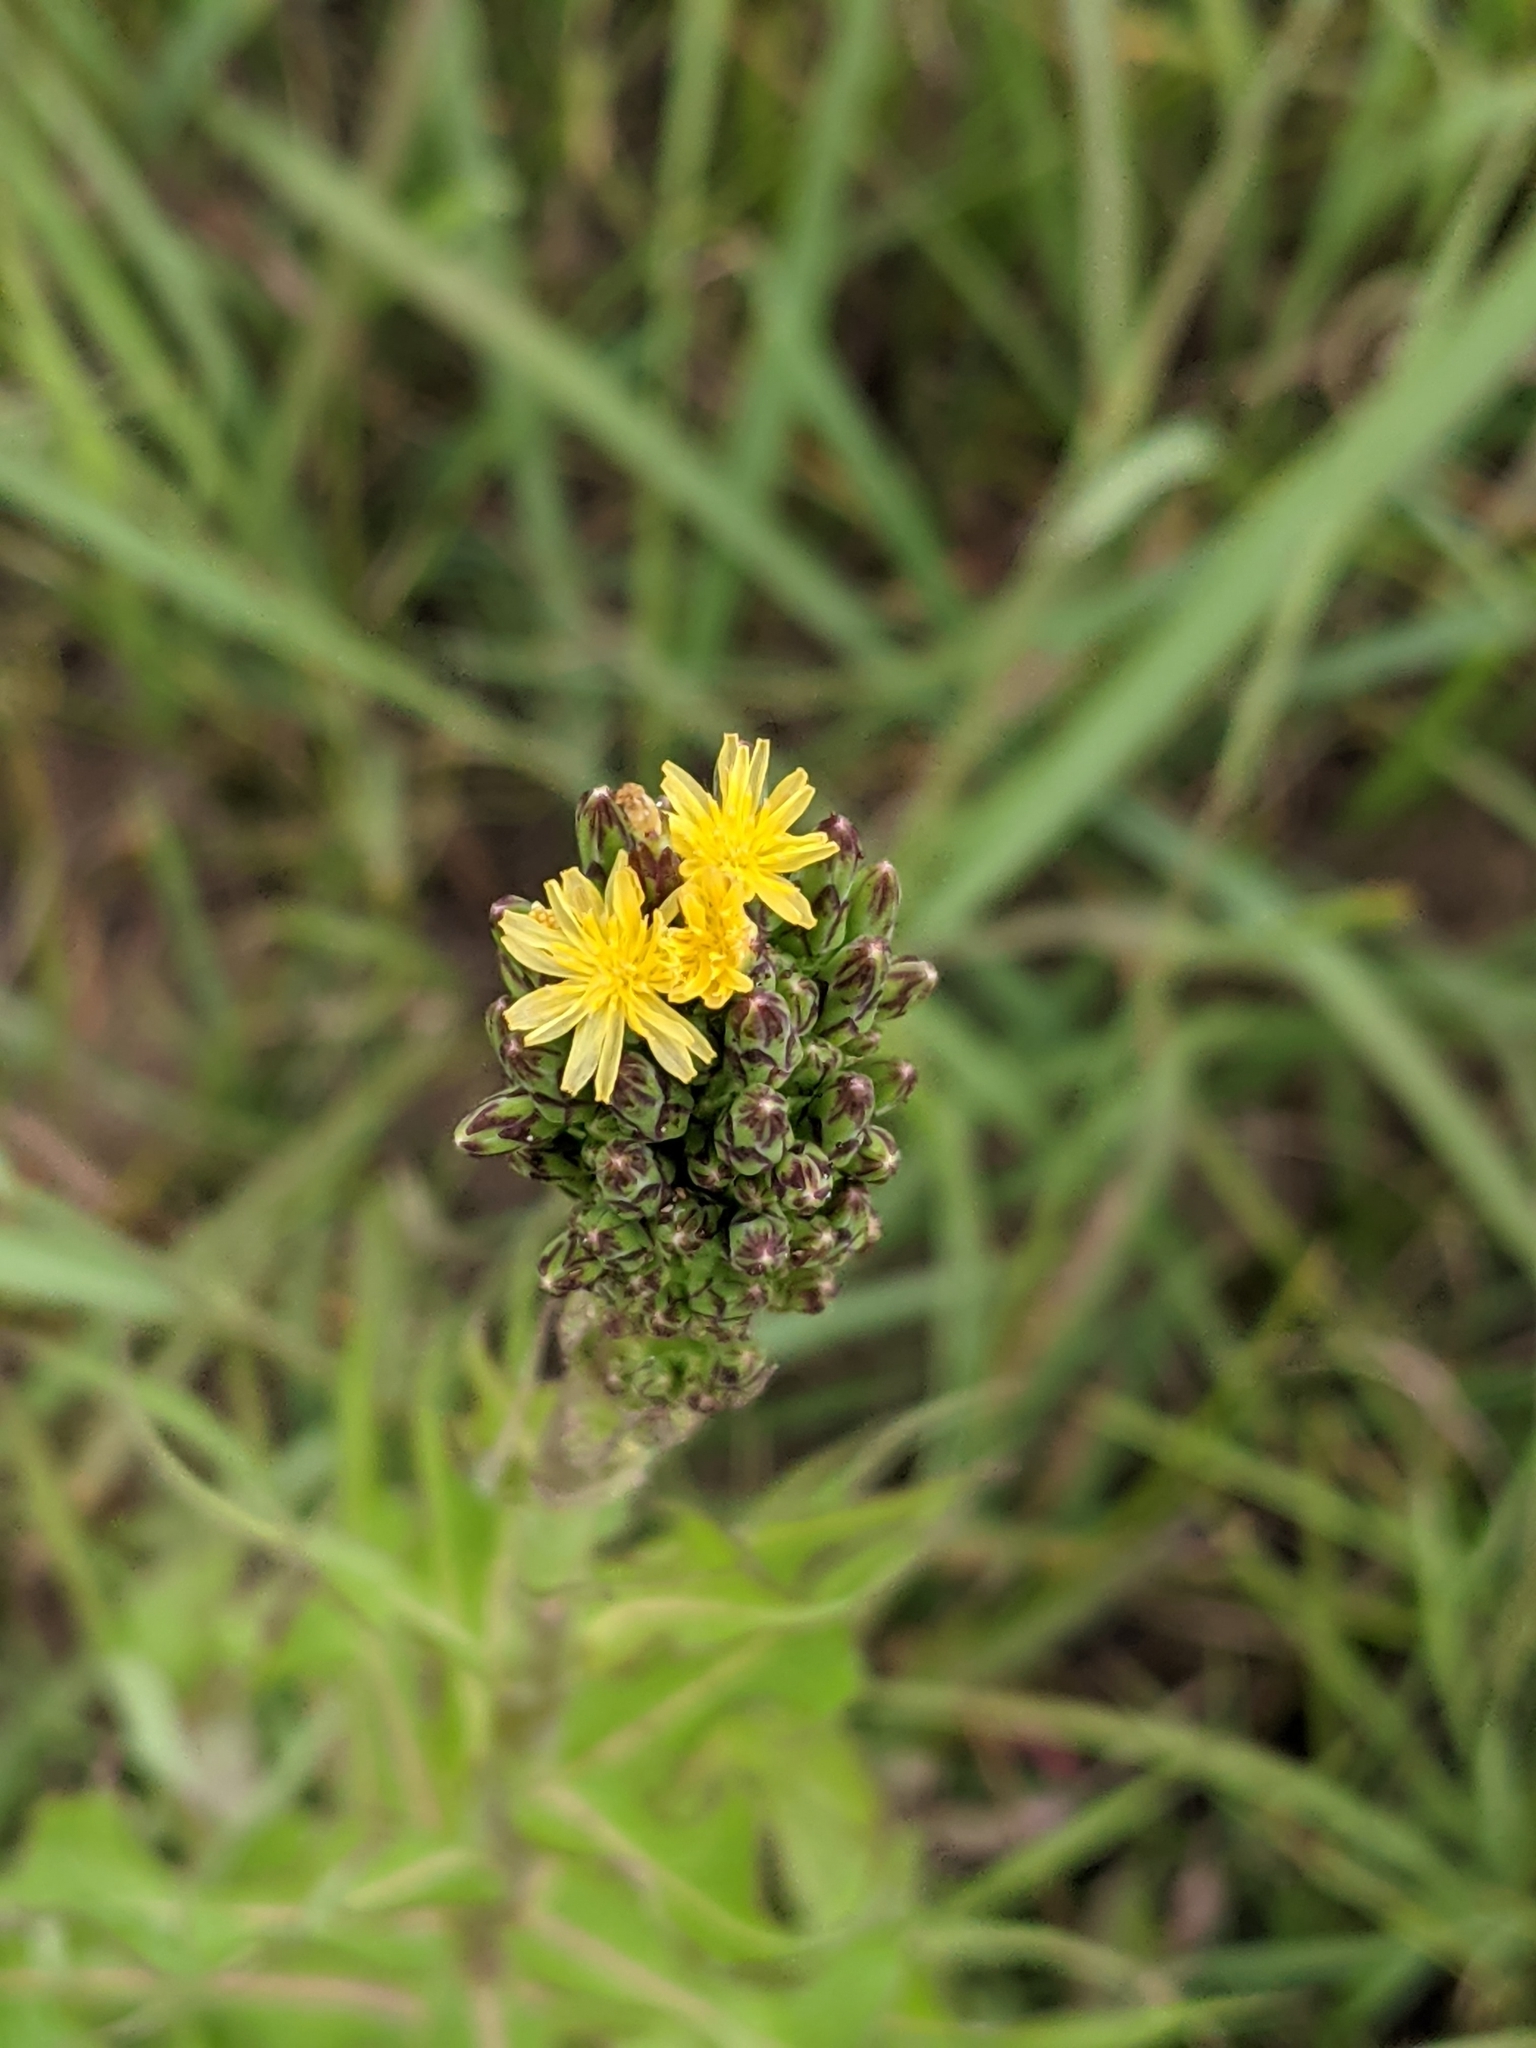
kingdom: Plantae
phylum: Tracheophyta
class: Magnoliopsida
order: Asterales
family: Asteraceae
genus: Lactuca
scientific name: Lactuca canadensis
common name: Canada lettuce
